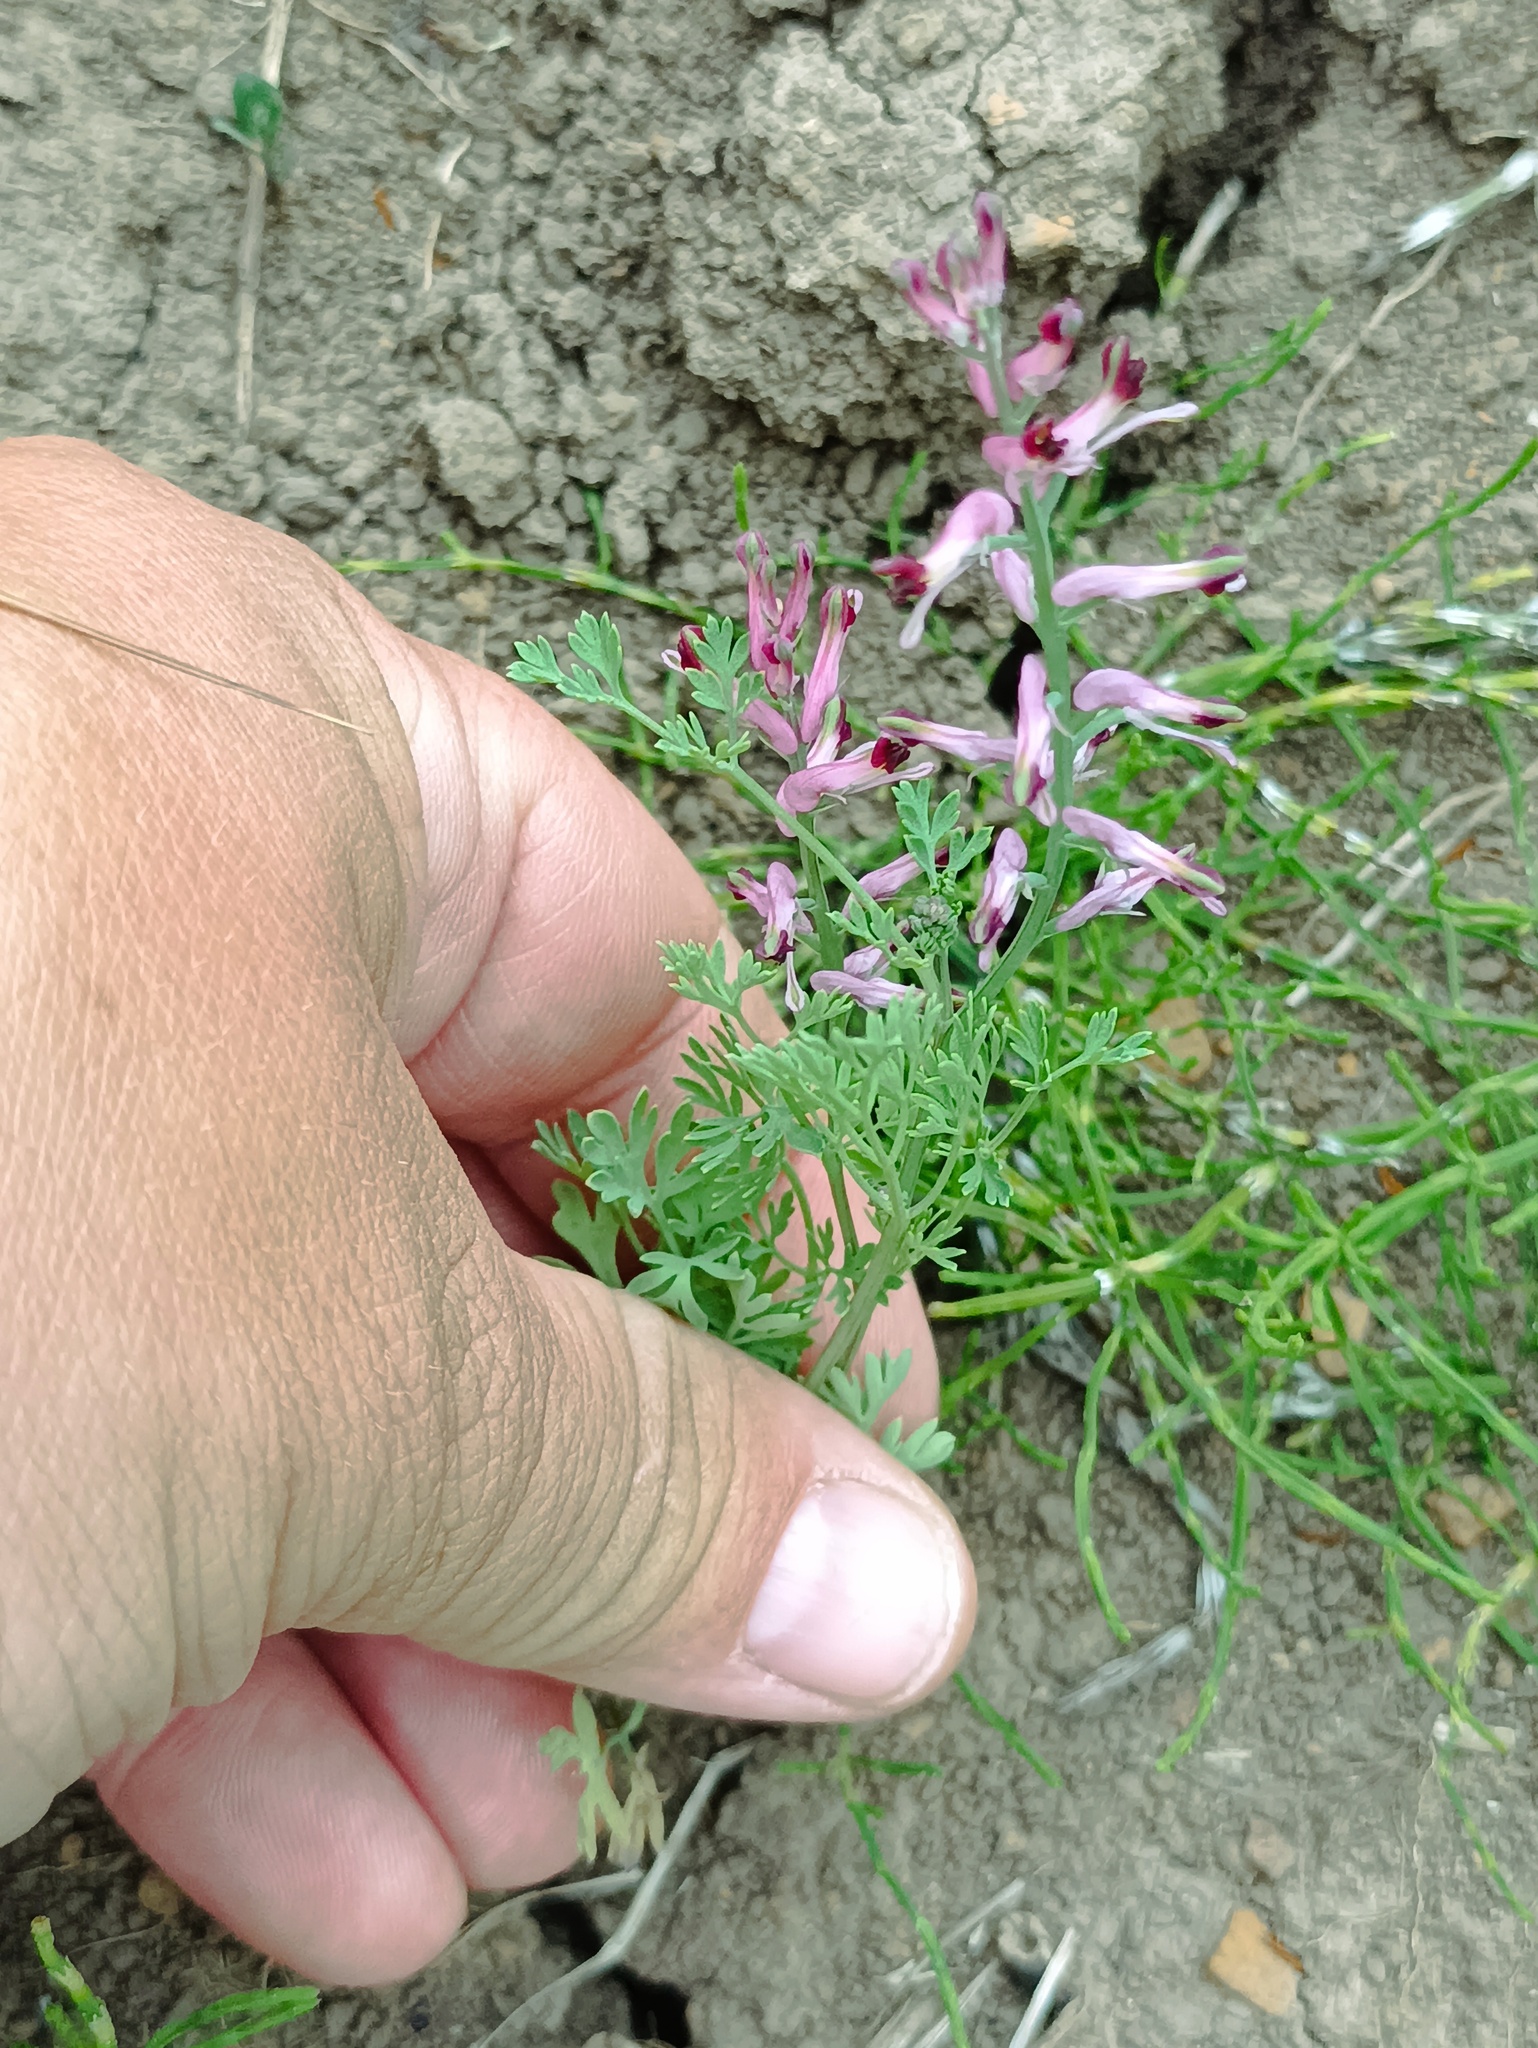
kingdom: Plantae
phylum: Tracheophyta
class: Magnoliopsida
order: Ranunculales
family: Papaveraceae
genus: Fumaria
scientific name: Fumaria officinalis
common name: Common fumitory
